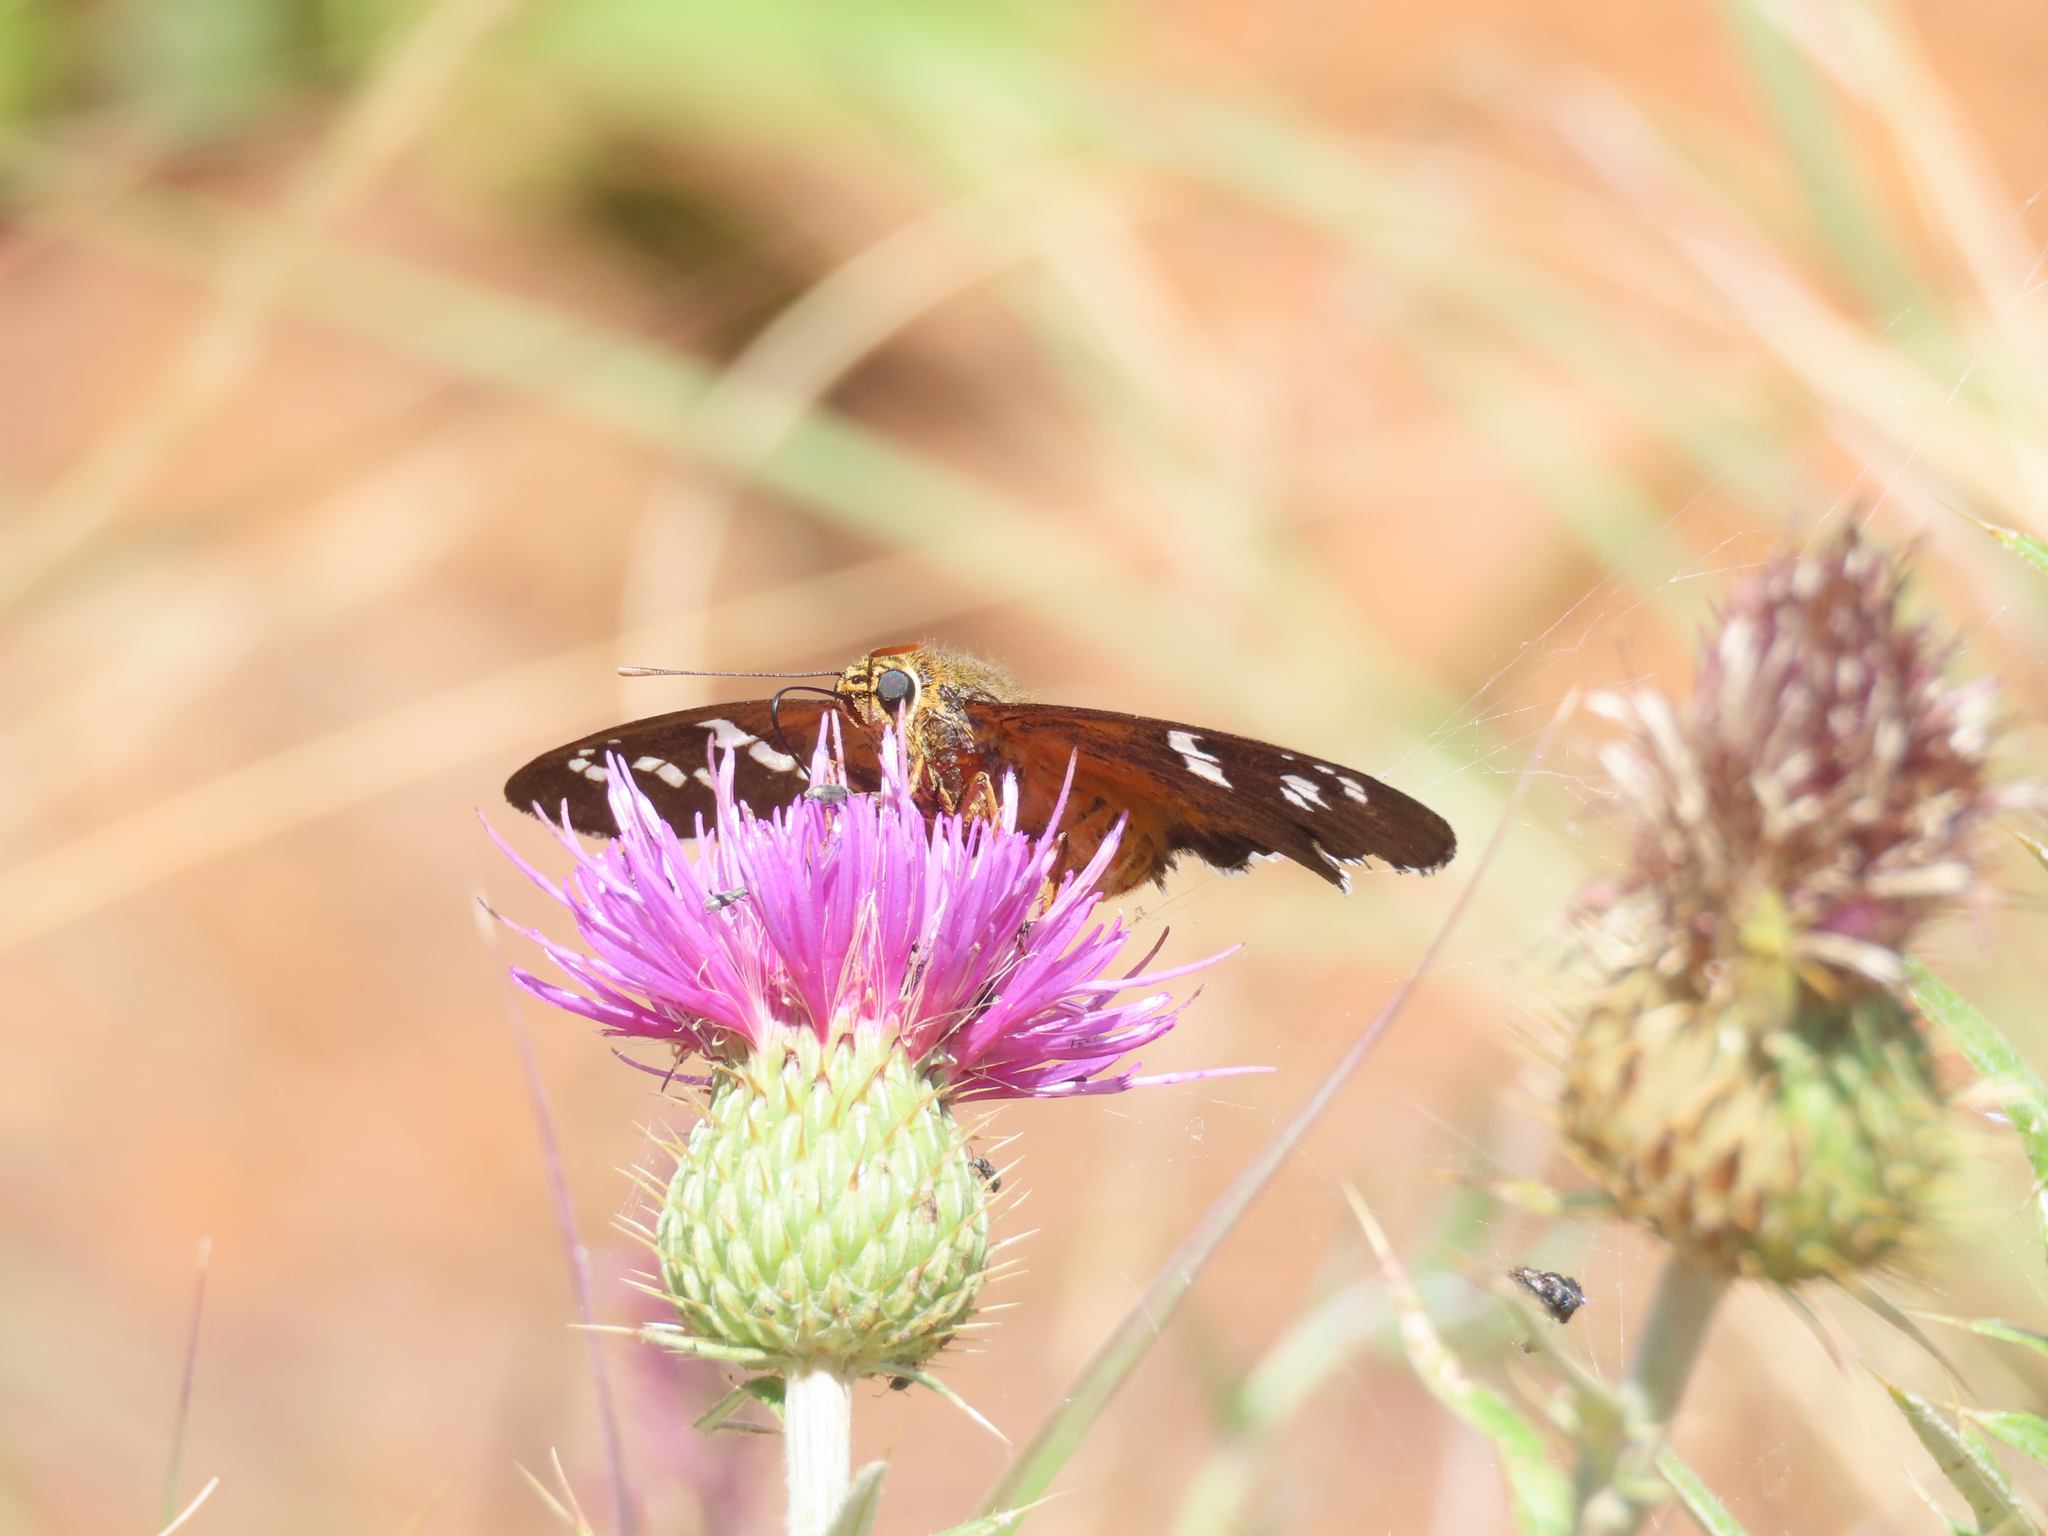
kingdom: Animalia
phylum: Arthropoda
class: Insecta
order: Lepidoptera
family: Hesperiidae
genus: Pyrrhopyge
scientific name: Pyrrhopyge araxes
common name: Dull firetip
